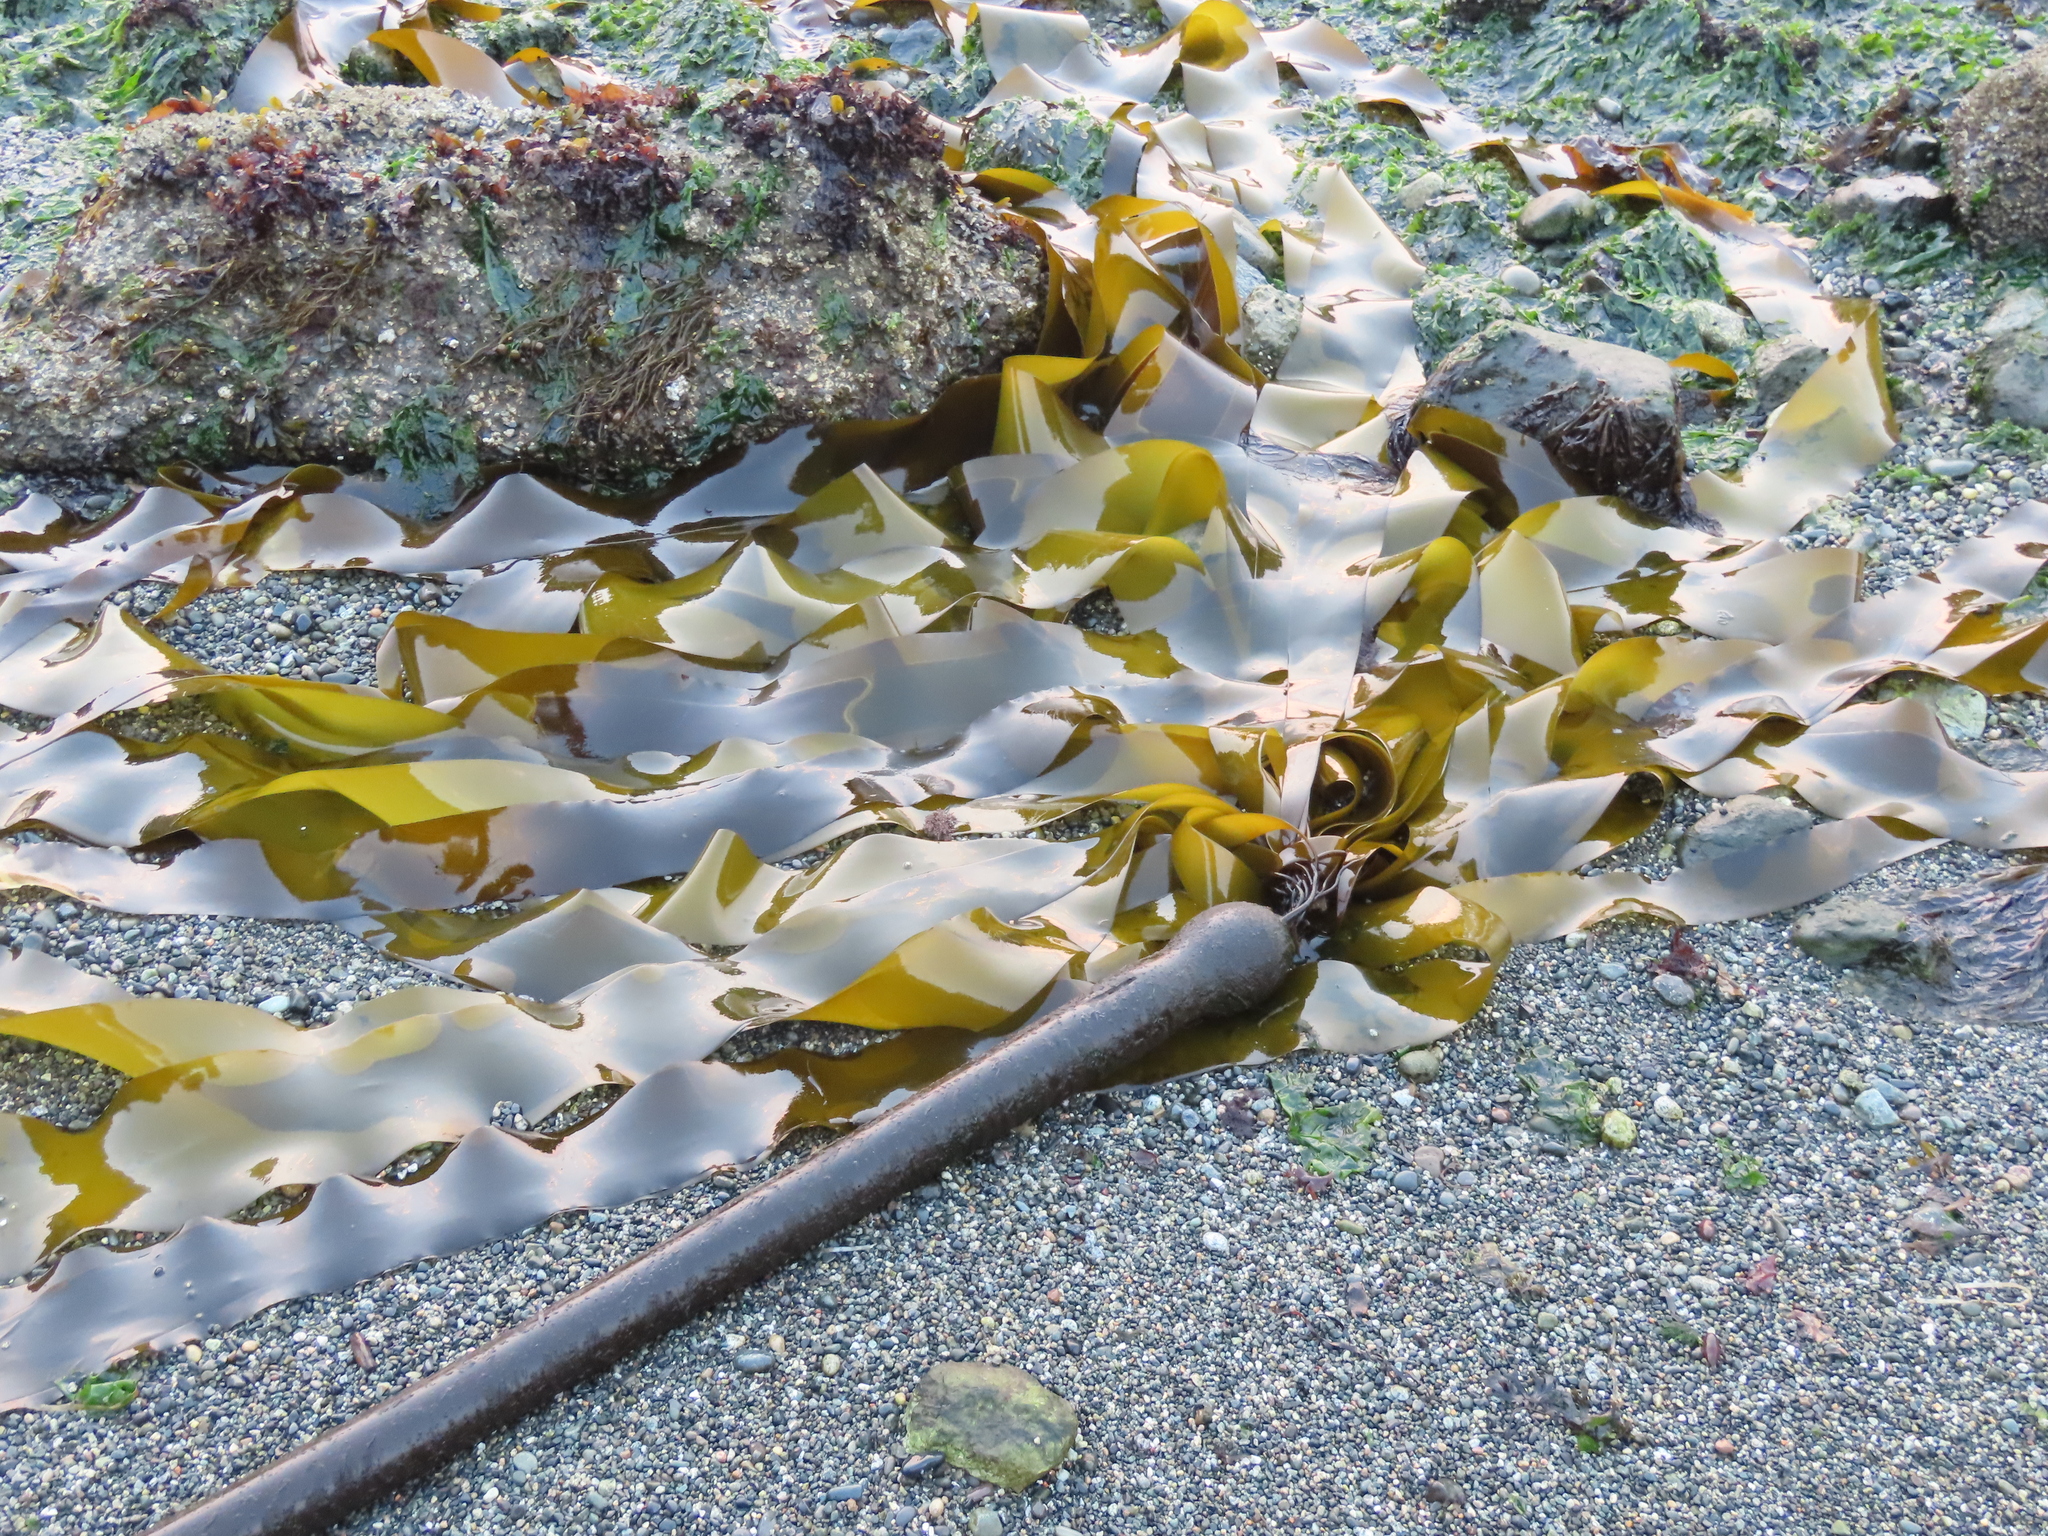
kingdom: Chromista
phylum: Ochrophyta
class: Phaeophyceae
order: Laminariales
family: Laminariaceae
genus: Nereocystis
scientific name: Nereocystis luetkeana
